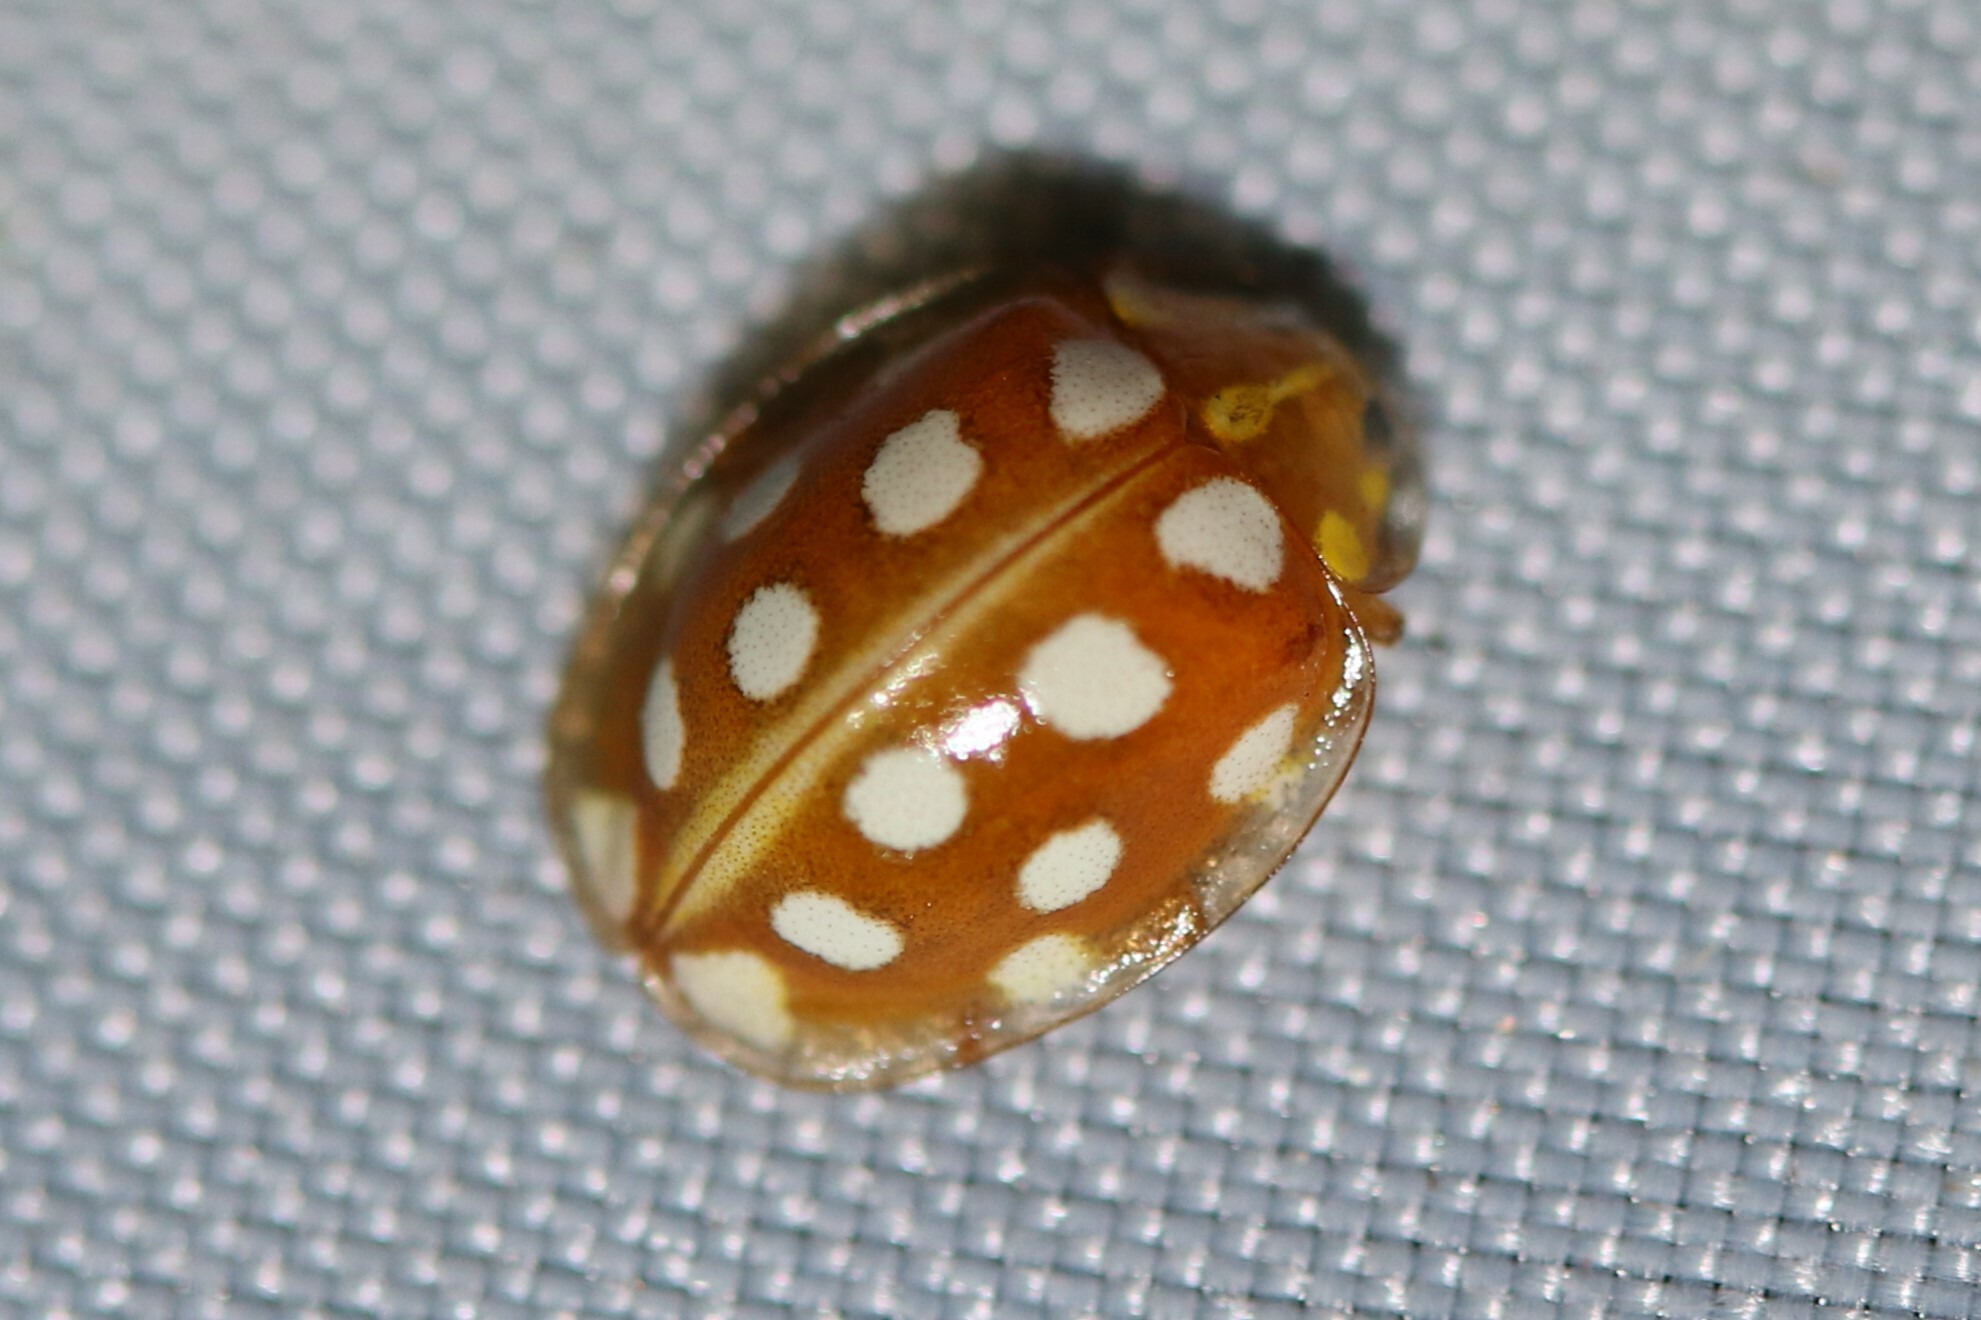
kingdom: Animalia
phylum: Arthropoda
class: Insecta
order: Coleoptera
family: Coccinellidae
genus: Halyzia
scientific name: Halyzia sedecimguttata
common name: Orange ladybird
